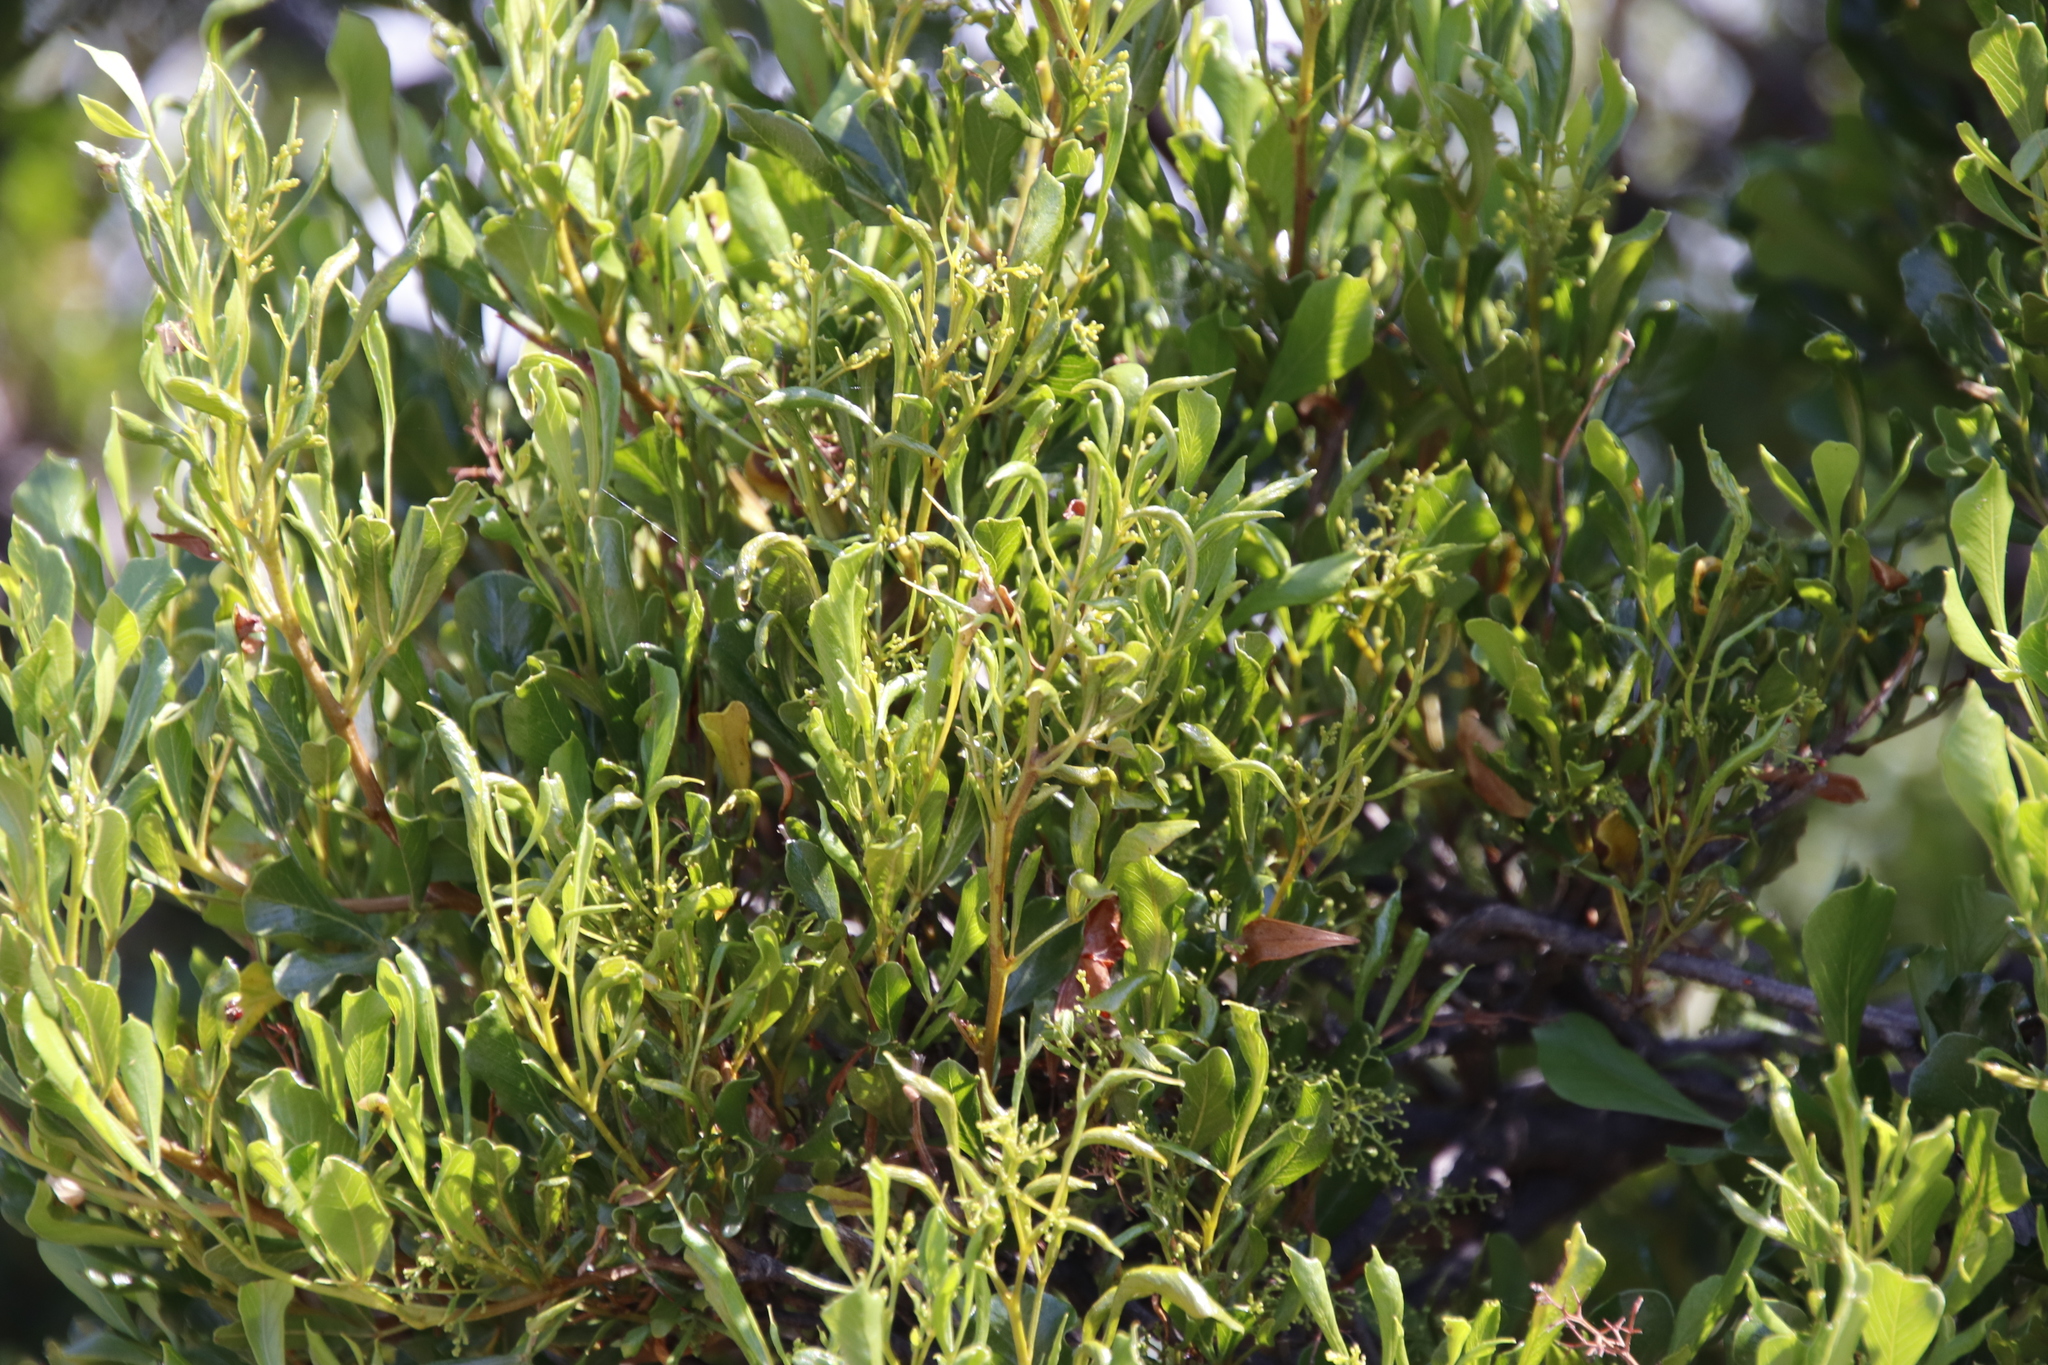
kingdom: Plantae
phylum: Tracheophyta
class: Magnoliopsida
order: Sapindales
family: Anacardiaceae
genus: Searsia
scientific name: Searsia pallens
